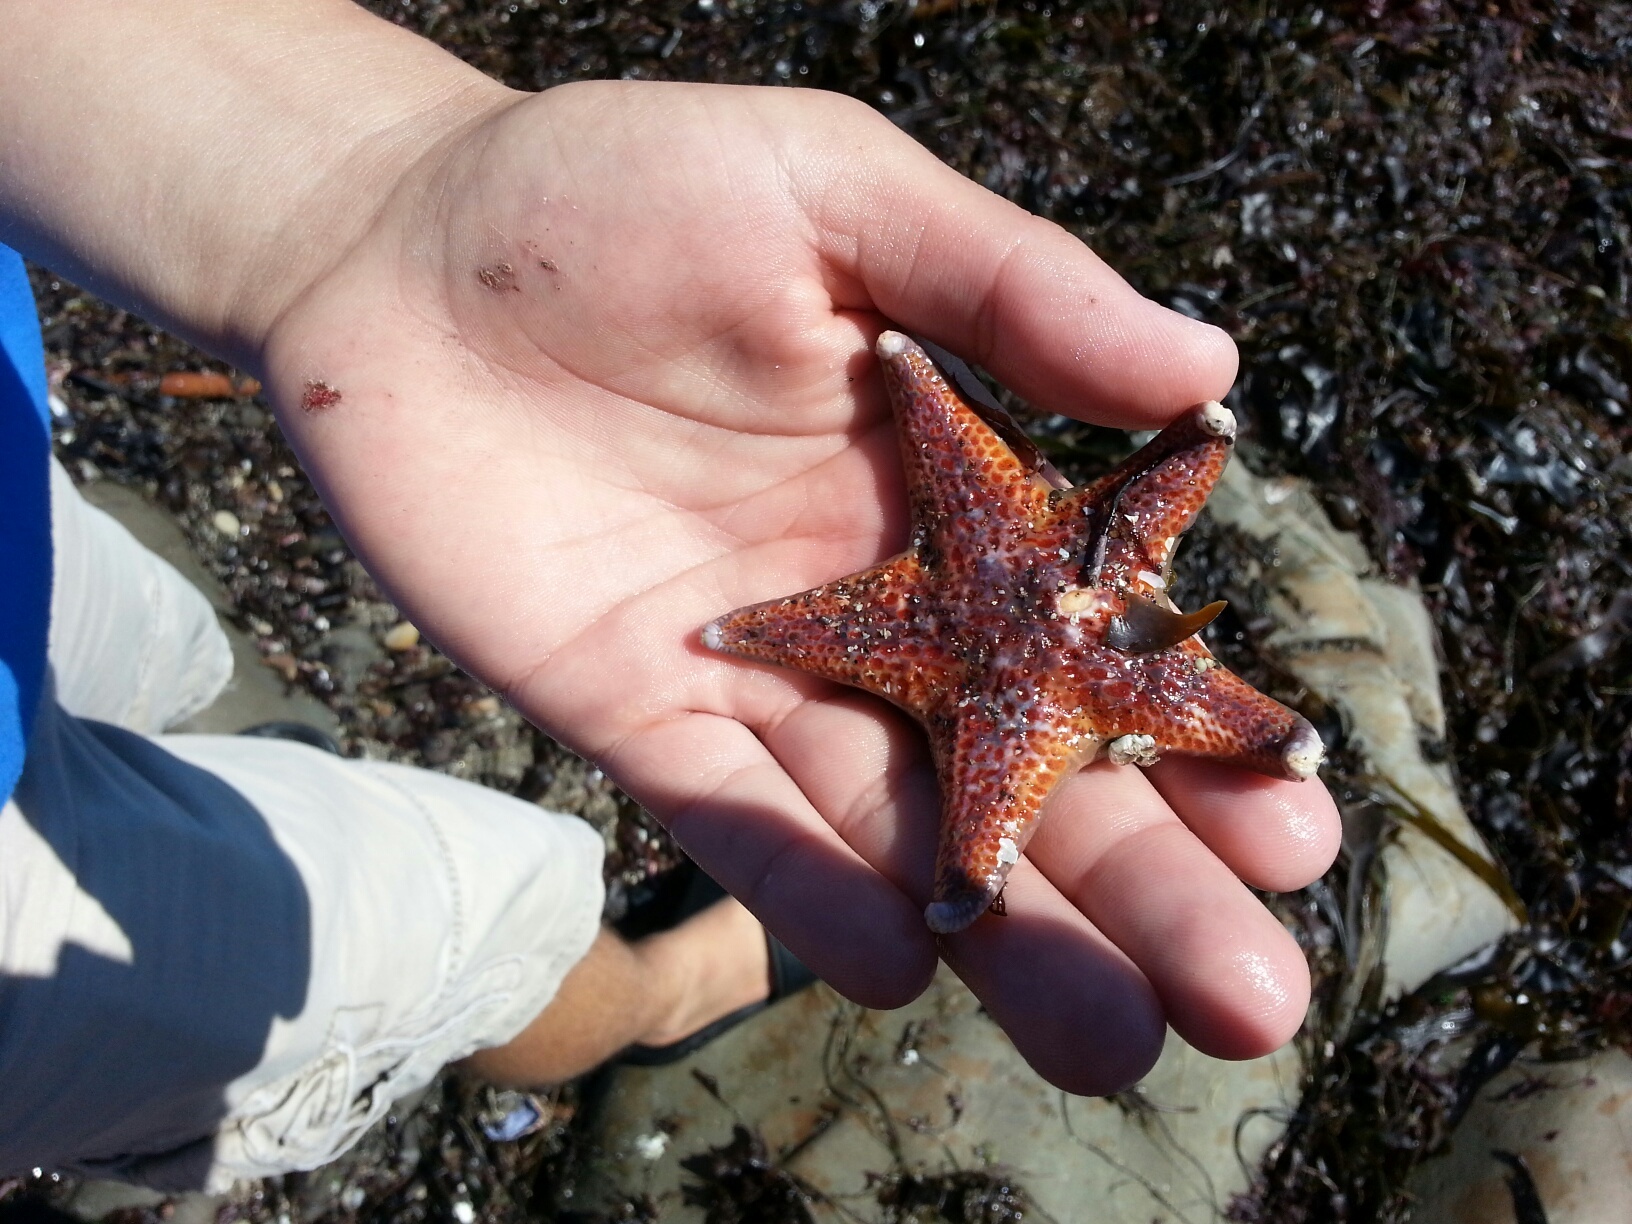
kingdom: Animalia
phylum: Echinodermata
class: Asteroidea
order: Valvatida
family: Asteropseidae
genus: Dermasterias
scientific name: Dermasterias imbricata
